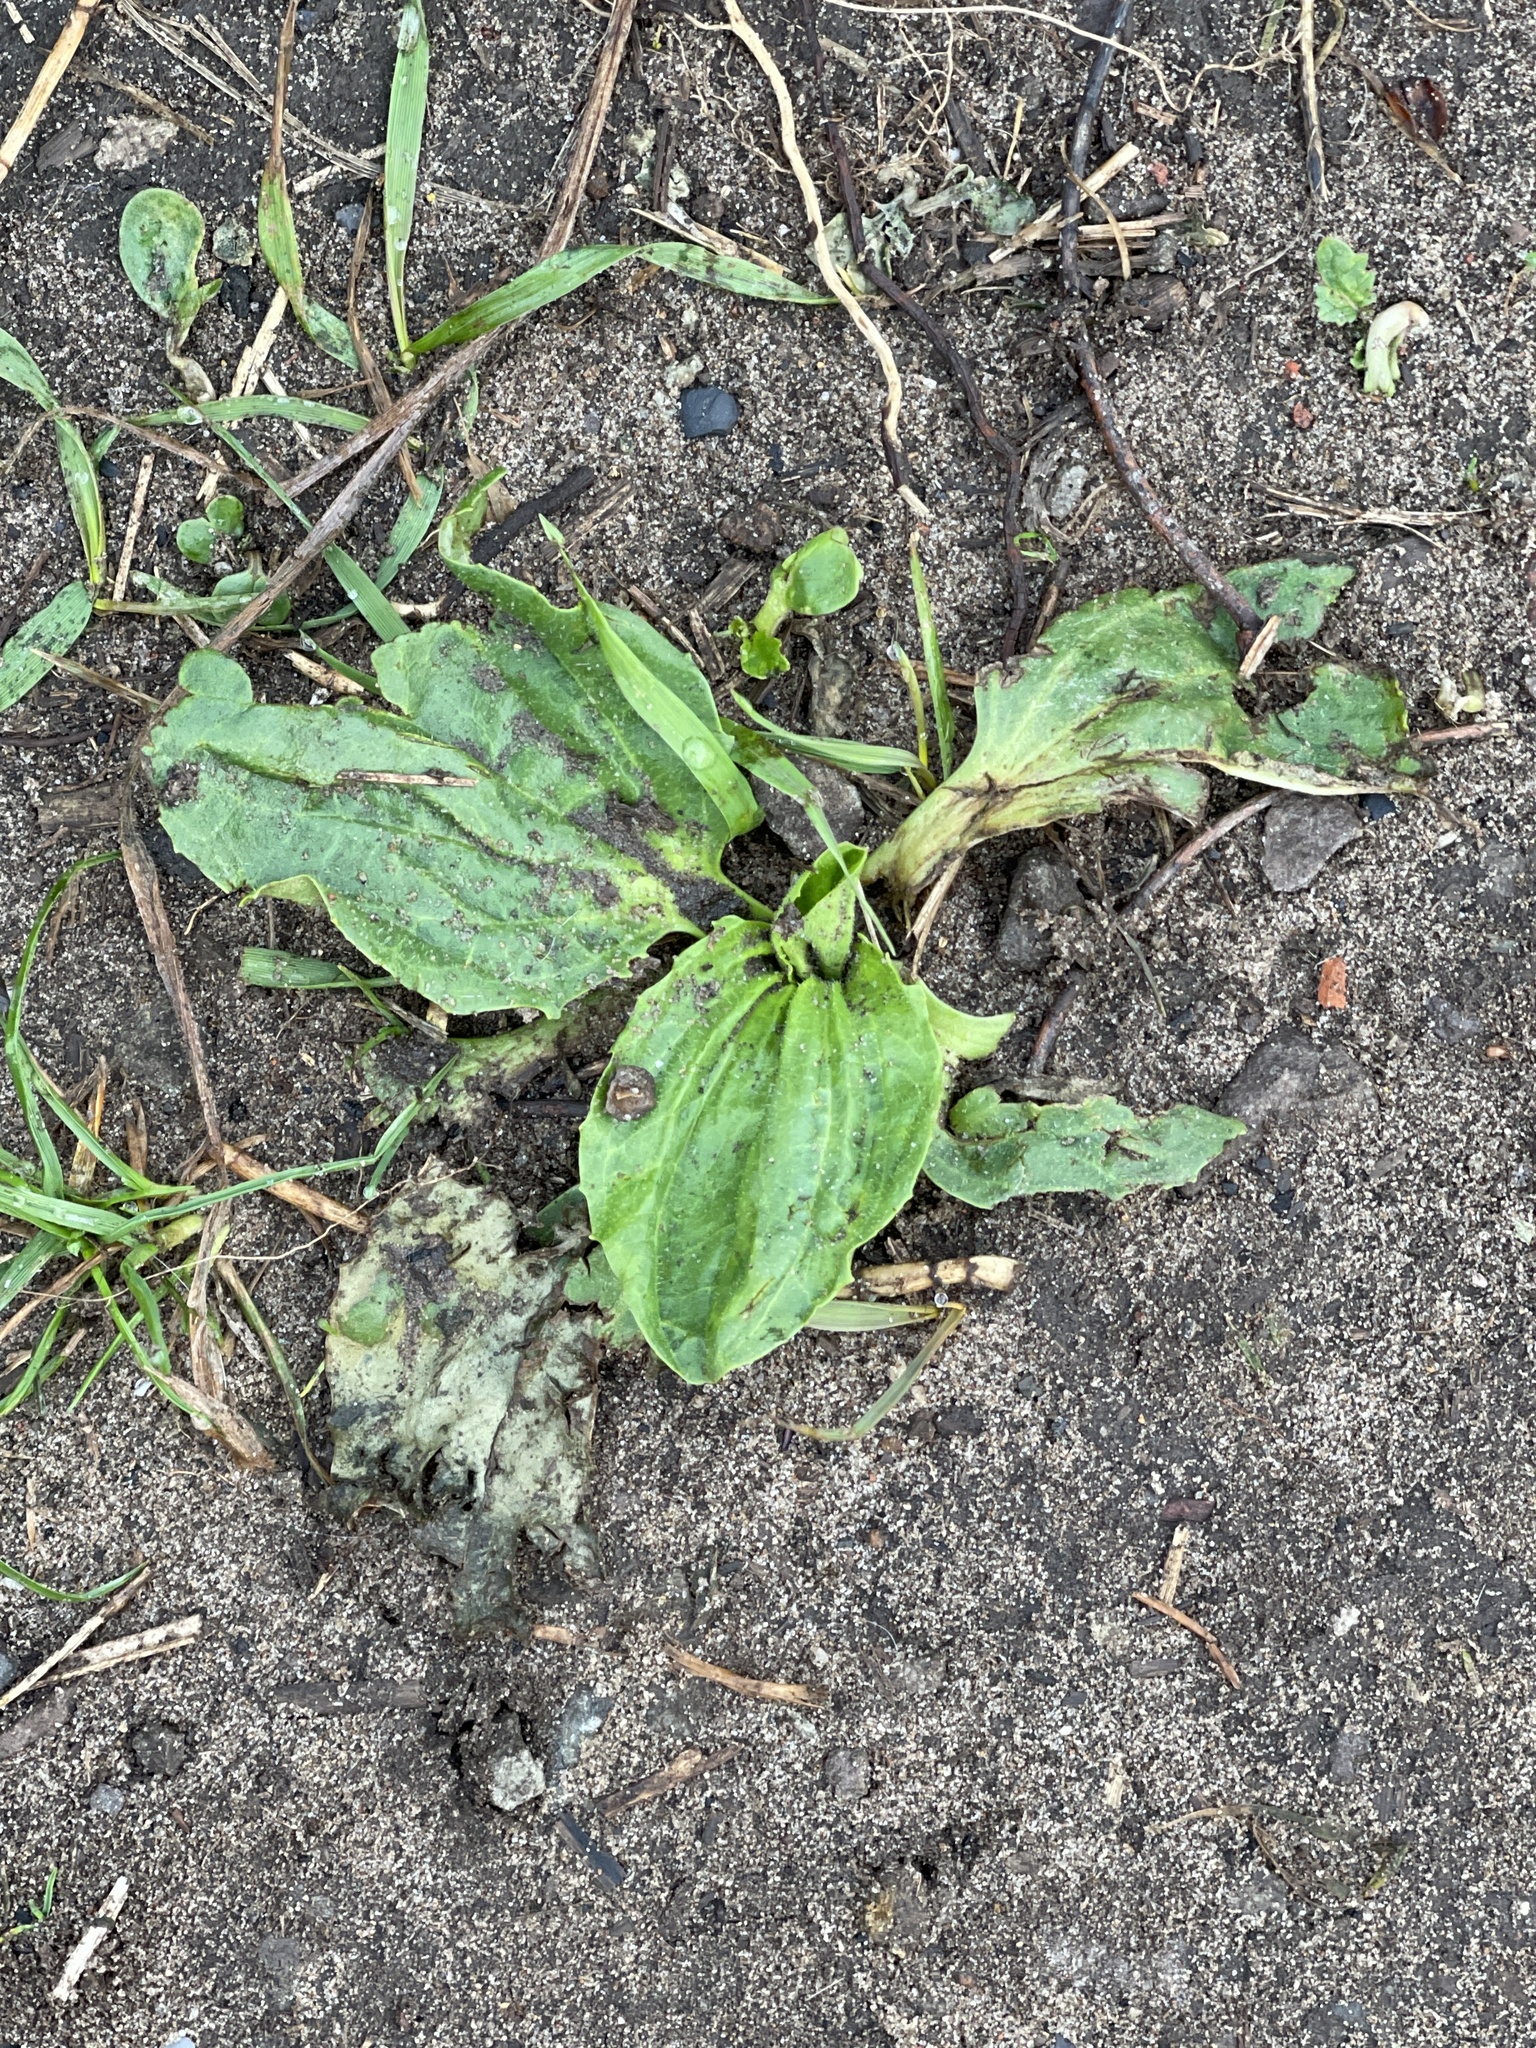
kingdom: Plantae
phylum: Tracheophyta
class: Magnoliopsida
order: Lamiales
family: Plantaginaceae
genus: Plantago
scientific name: Plantago major
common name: Common plantain
